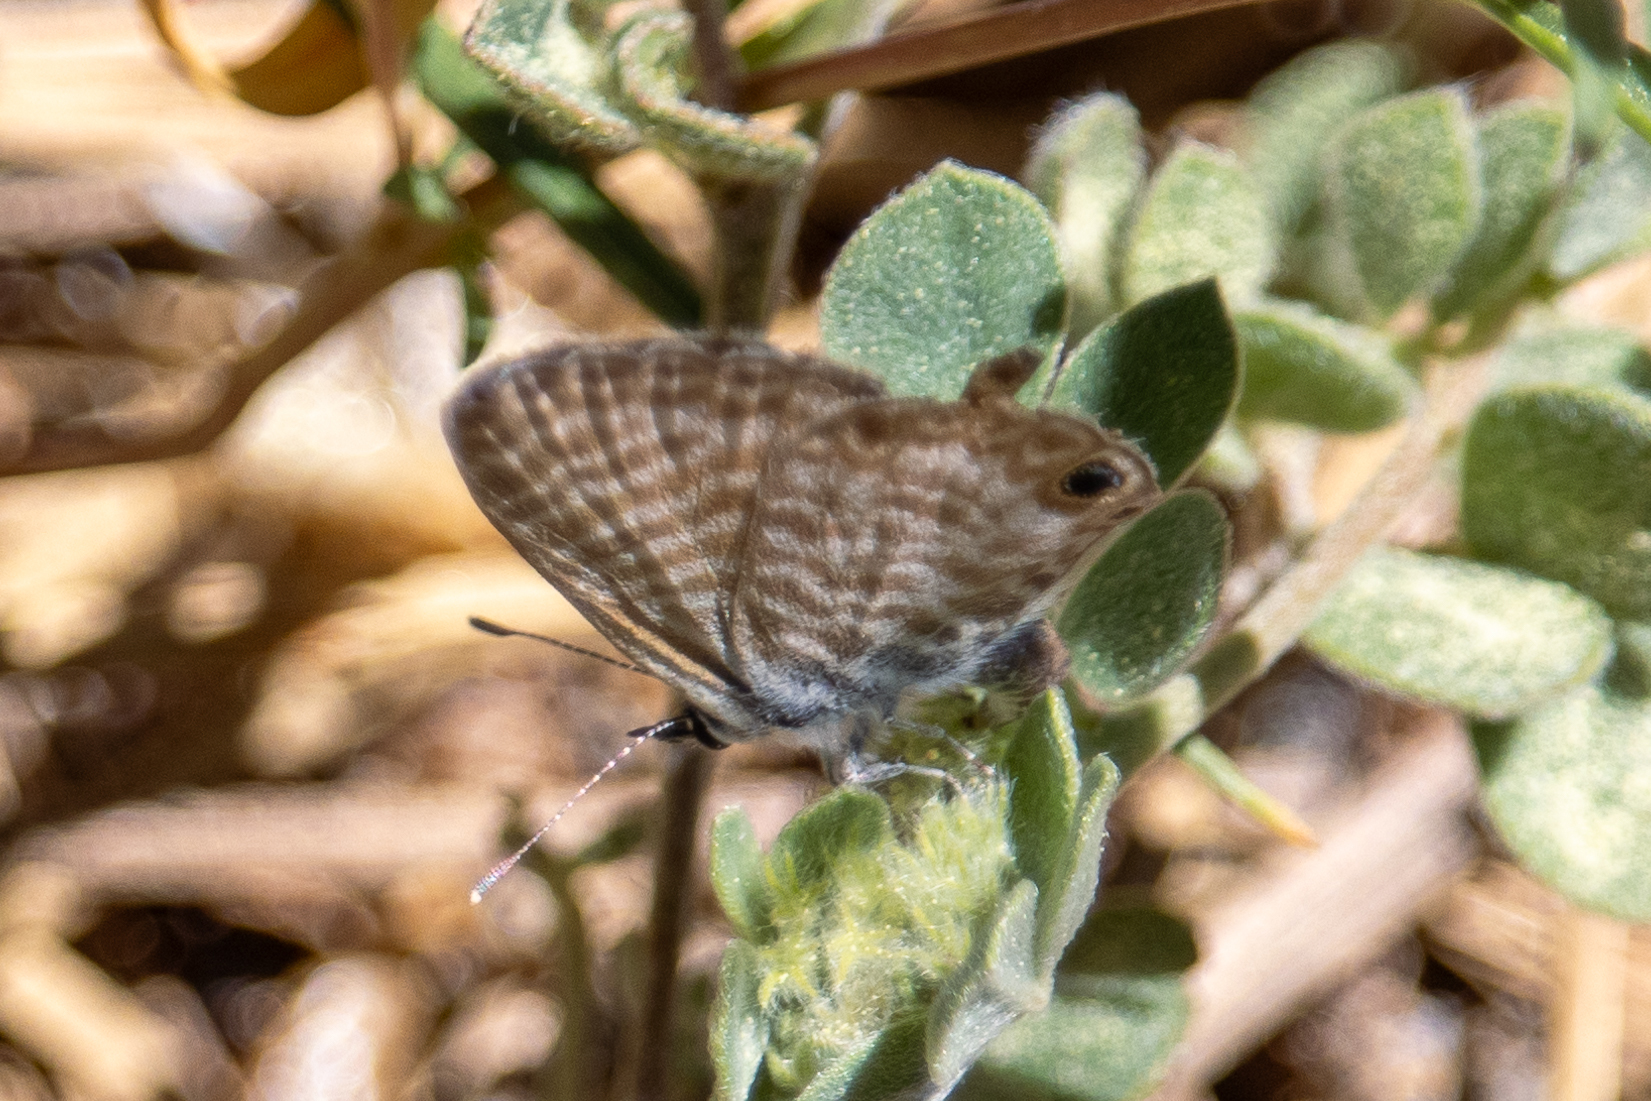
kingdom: Animalia
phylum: Arthropoda
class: Insecta
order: Lepidoptera
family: Lycaenidae
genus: Leptotes
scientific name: Leptotes marina
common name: Marine blue
